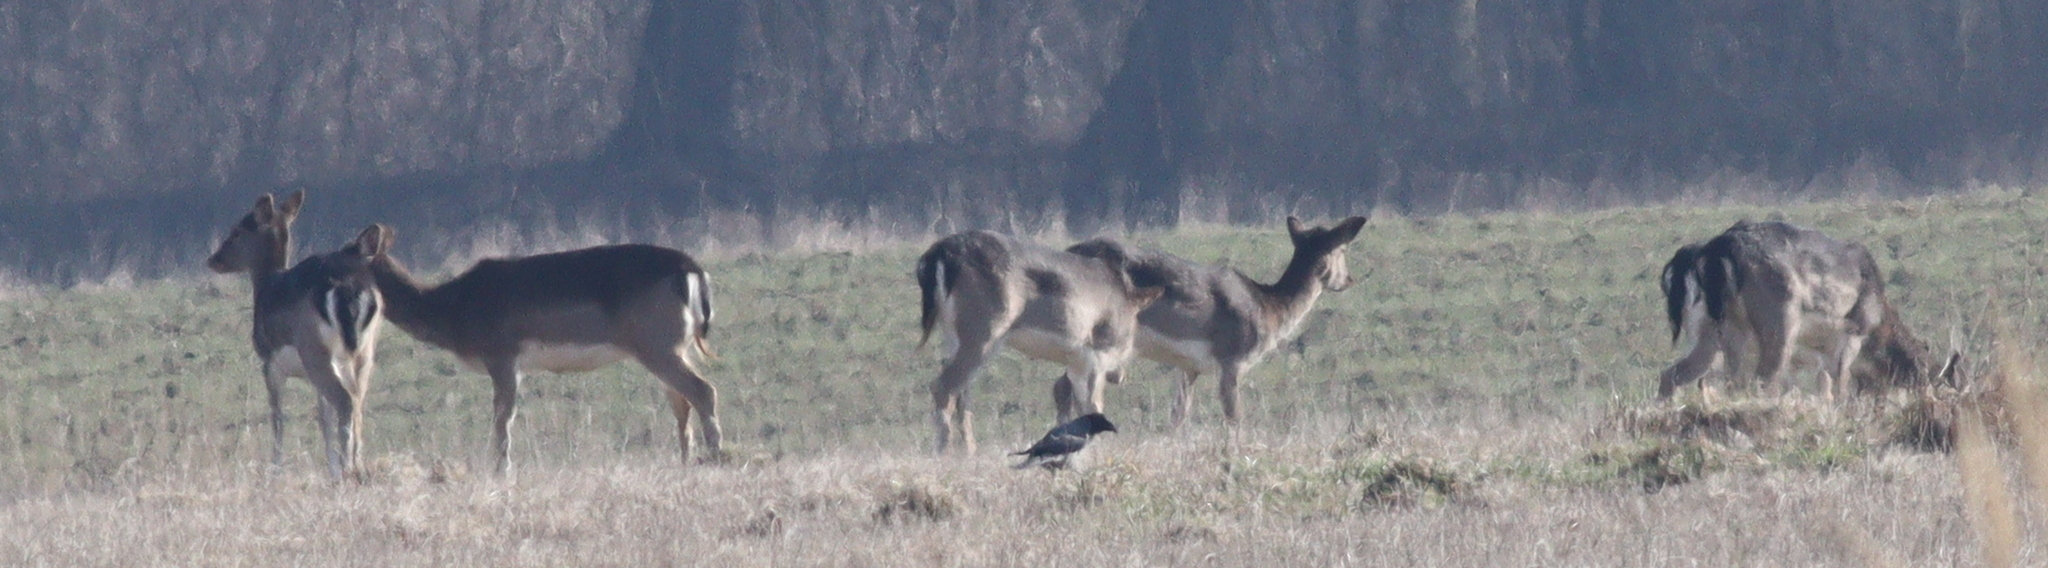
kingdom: Animalia
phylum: Chordata
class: Mammalia
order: Artiodactyla
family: Cervidae
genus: Dama
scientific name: Dama dama
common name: Fallow deer
